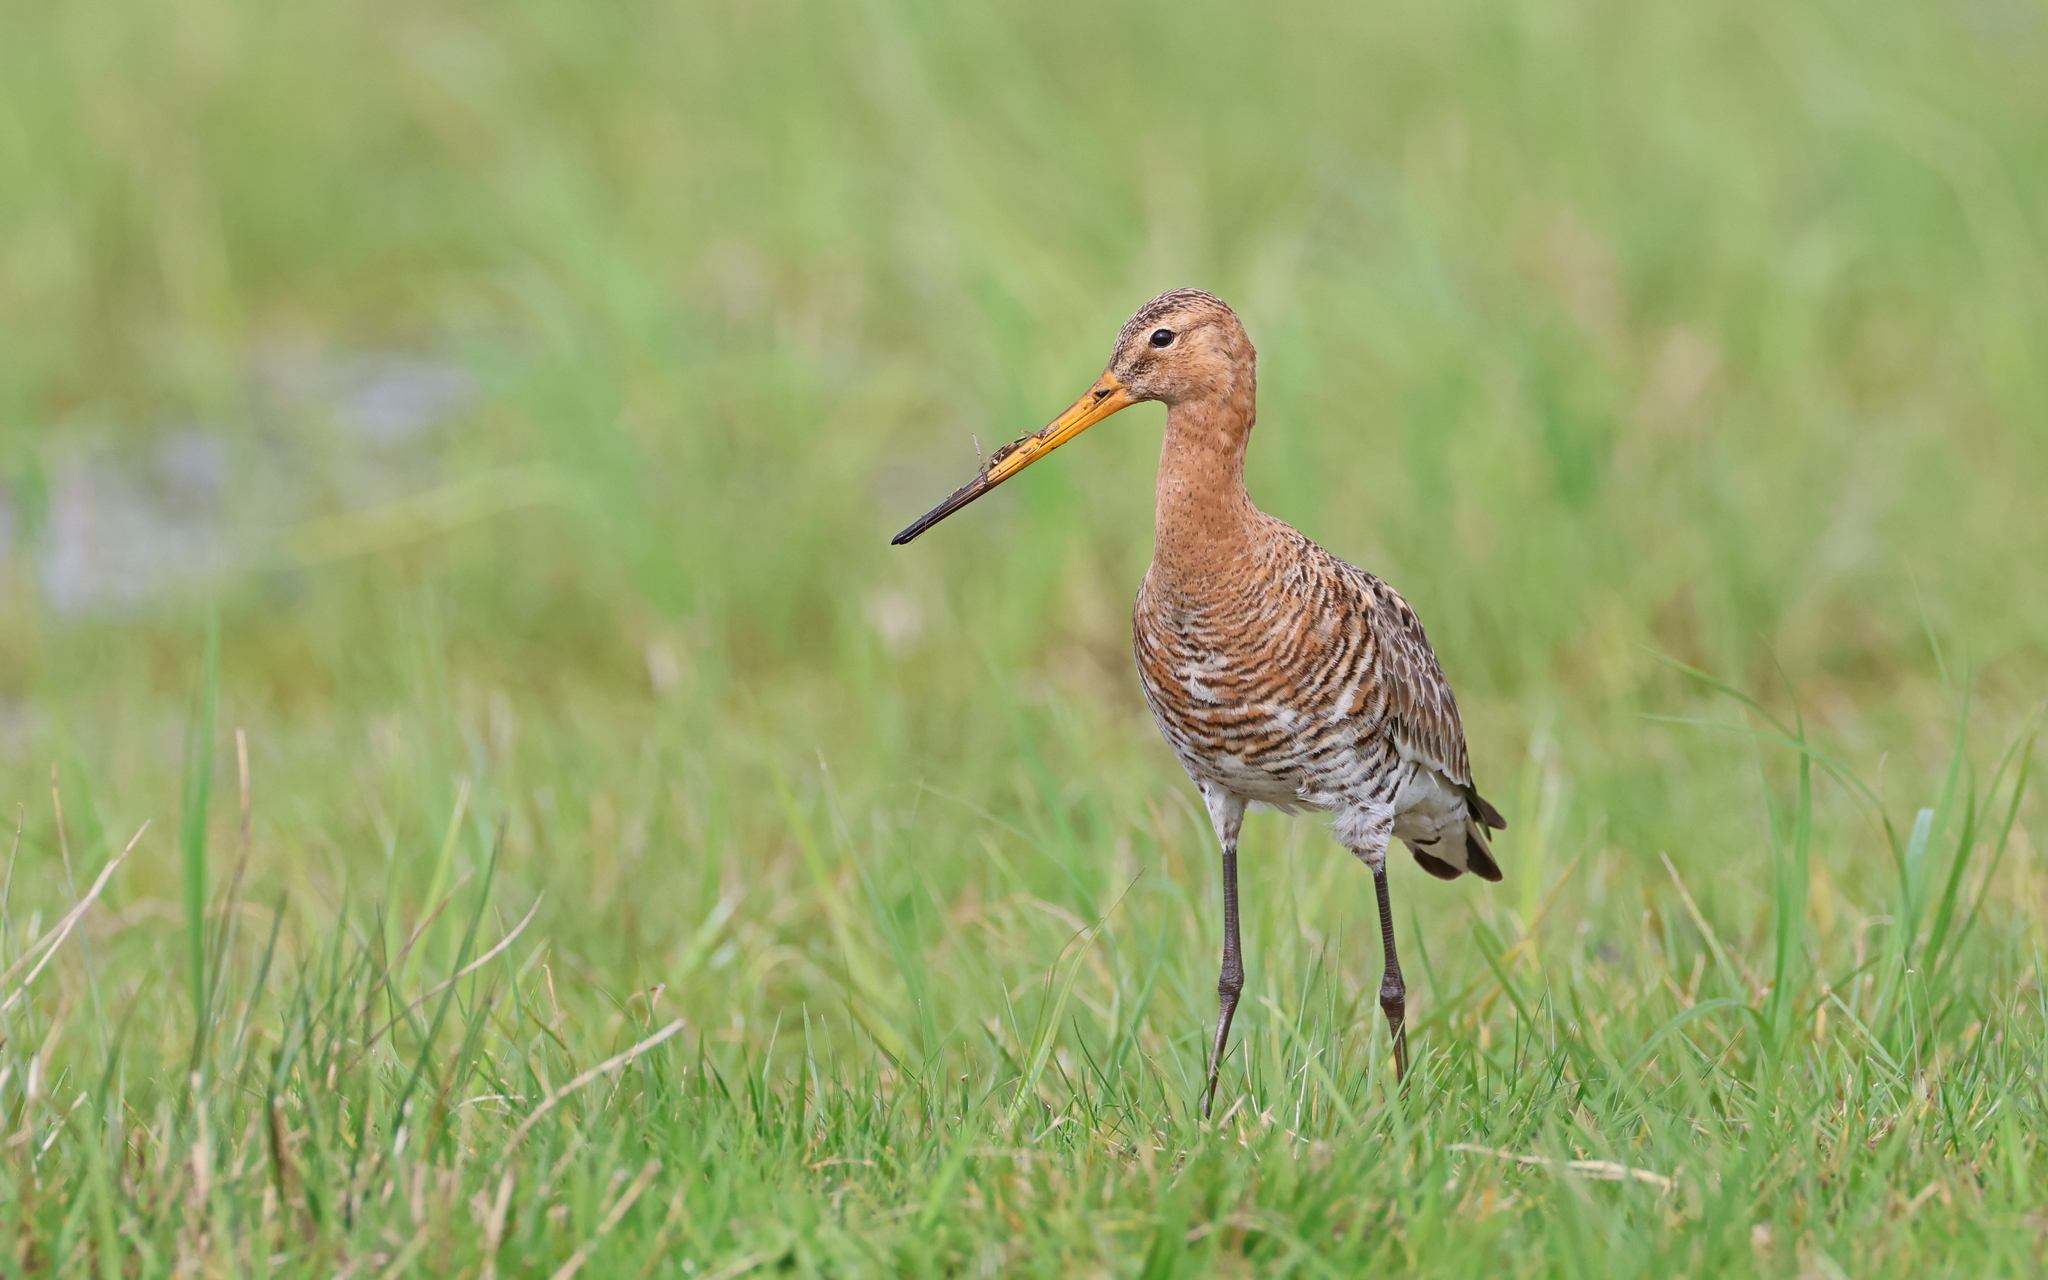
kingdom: Animalia
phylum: Chordata
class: Aves
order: Charadriiformes
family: Scolopacidae
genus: Limosa
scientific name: Limosa limosa
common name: Black-tailed godwit
